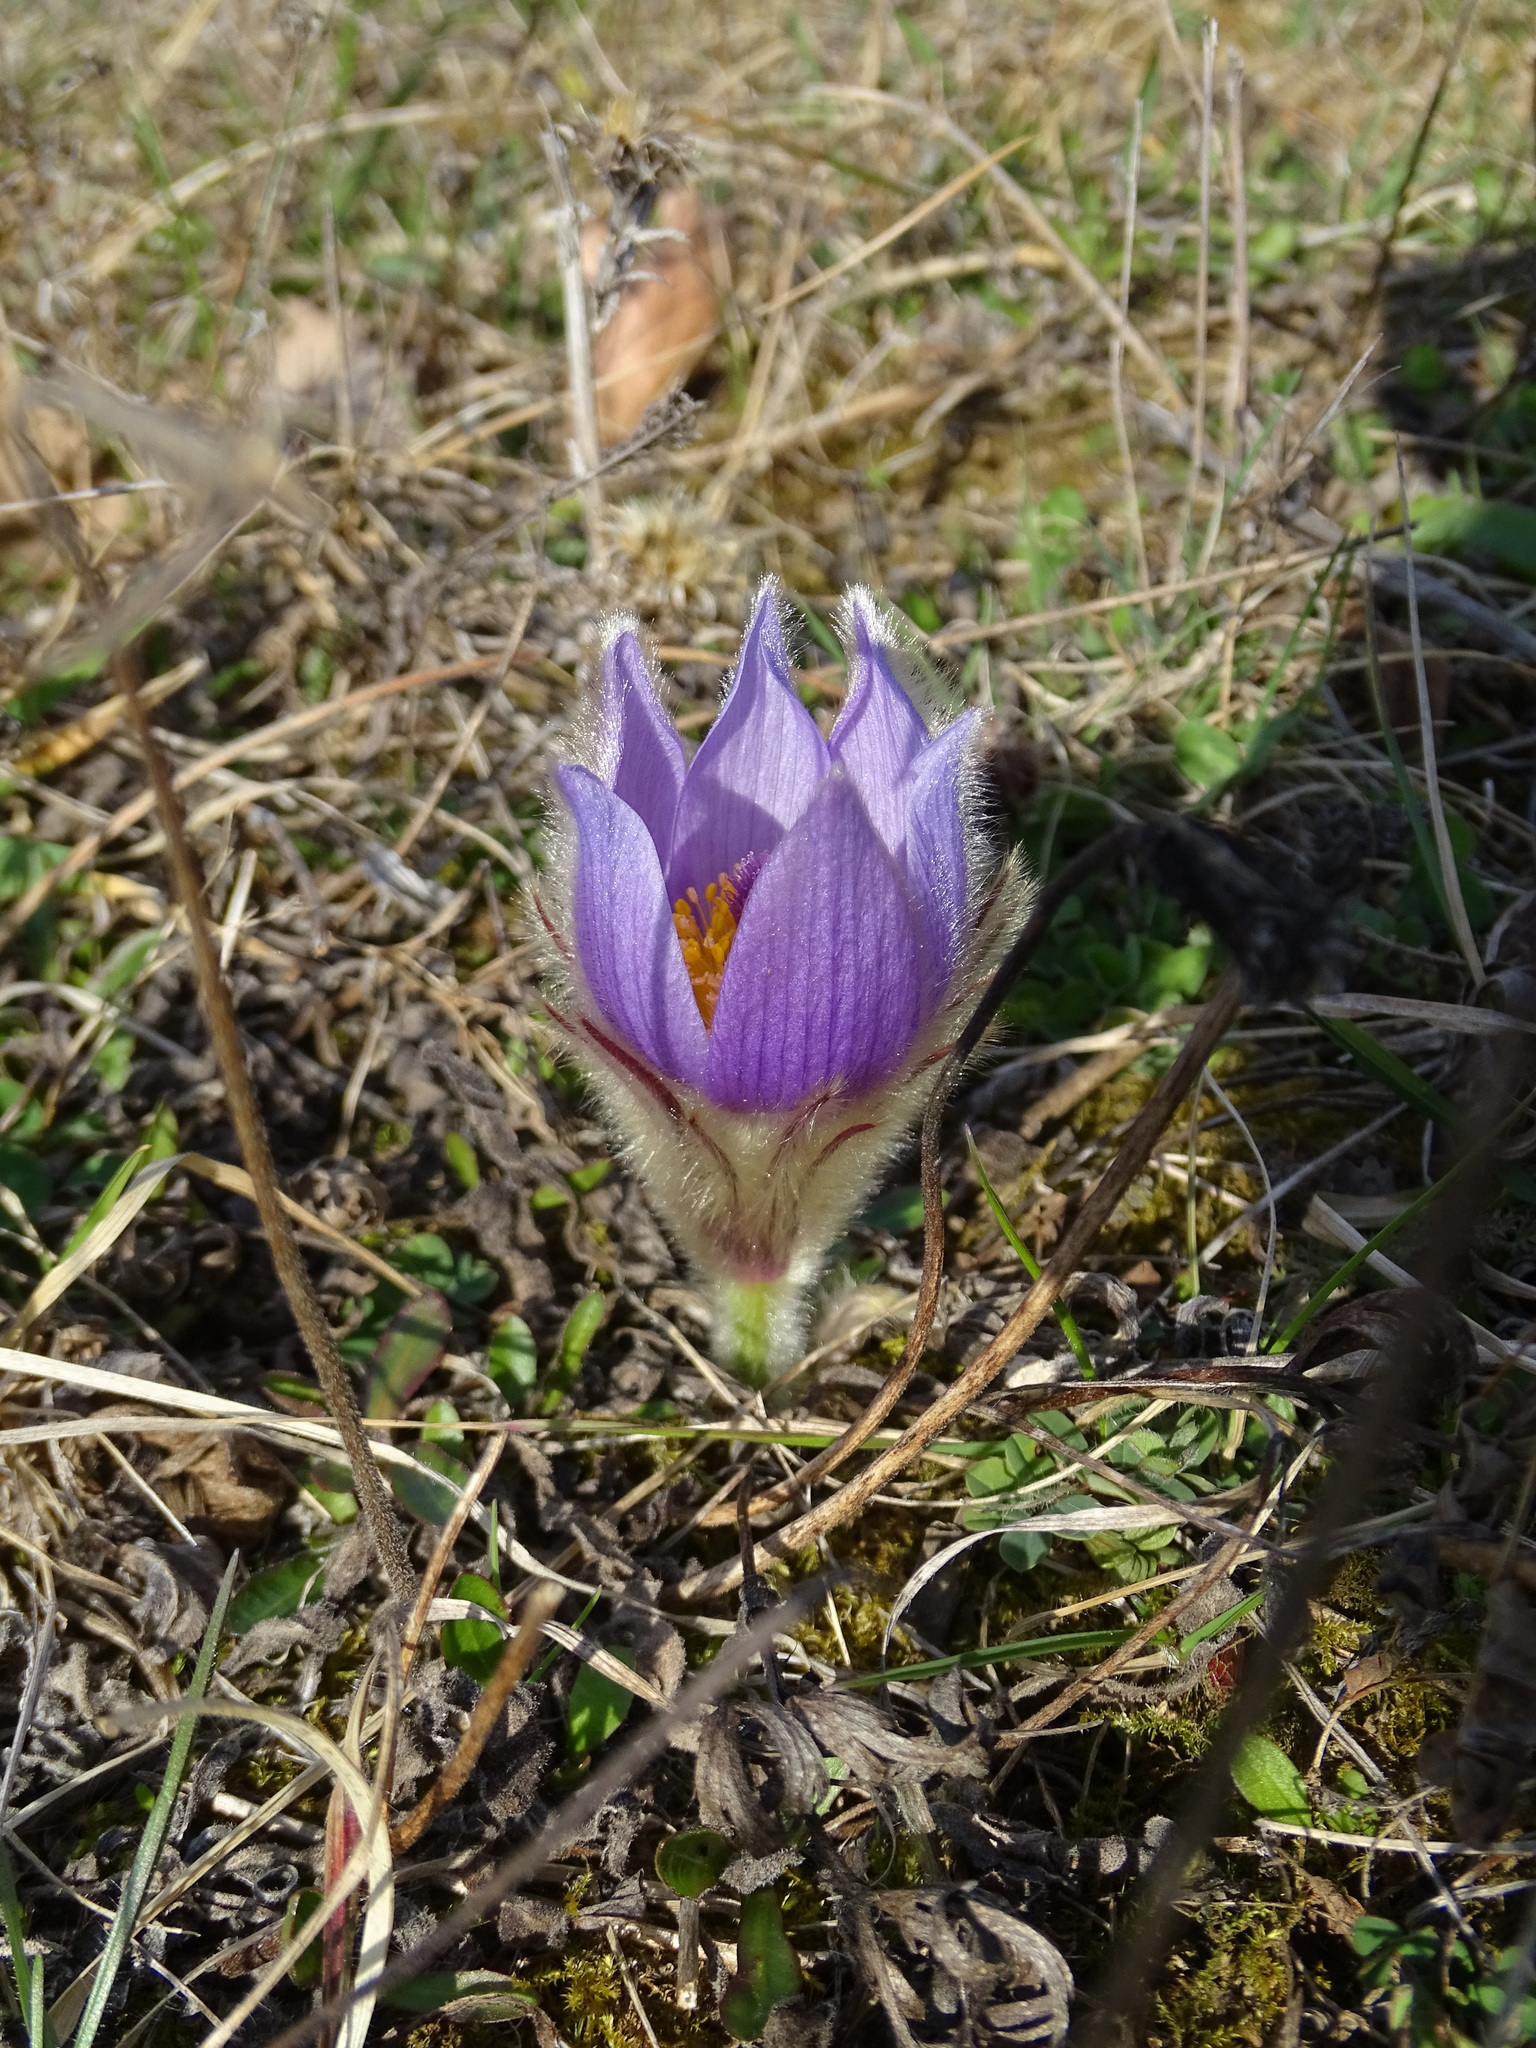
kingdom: Plantae
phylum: Tracheophyta
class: Magnoliopsida
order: Ranunculales
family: Ranunculaceae
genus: Pulsatilla
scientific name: Pulsatilla grandis
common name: Greater pasque flower
